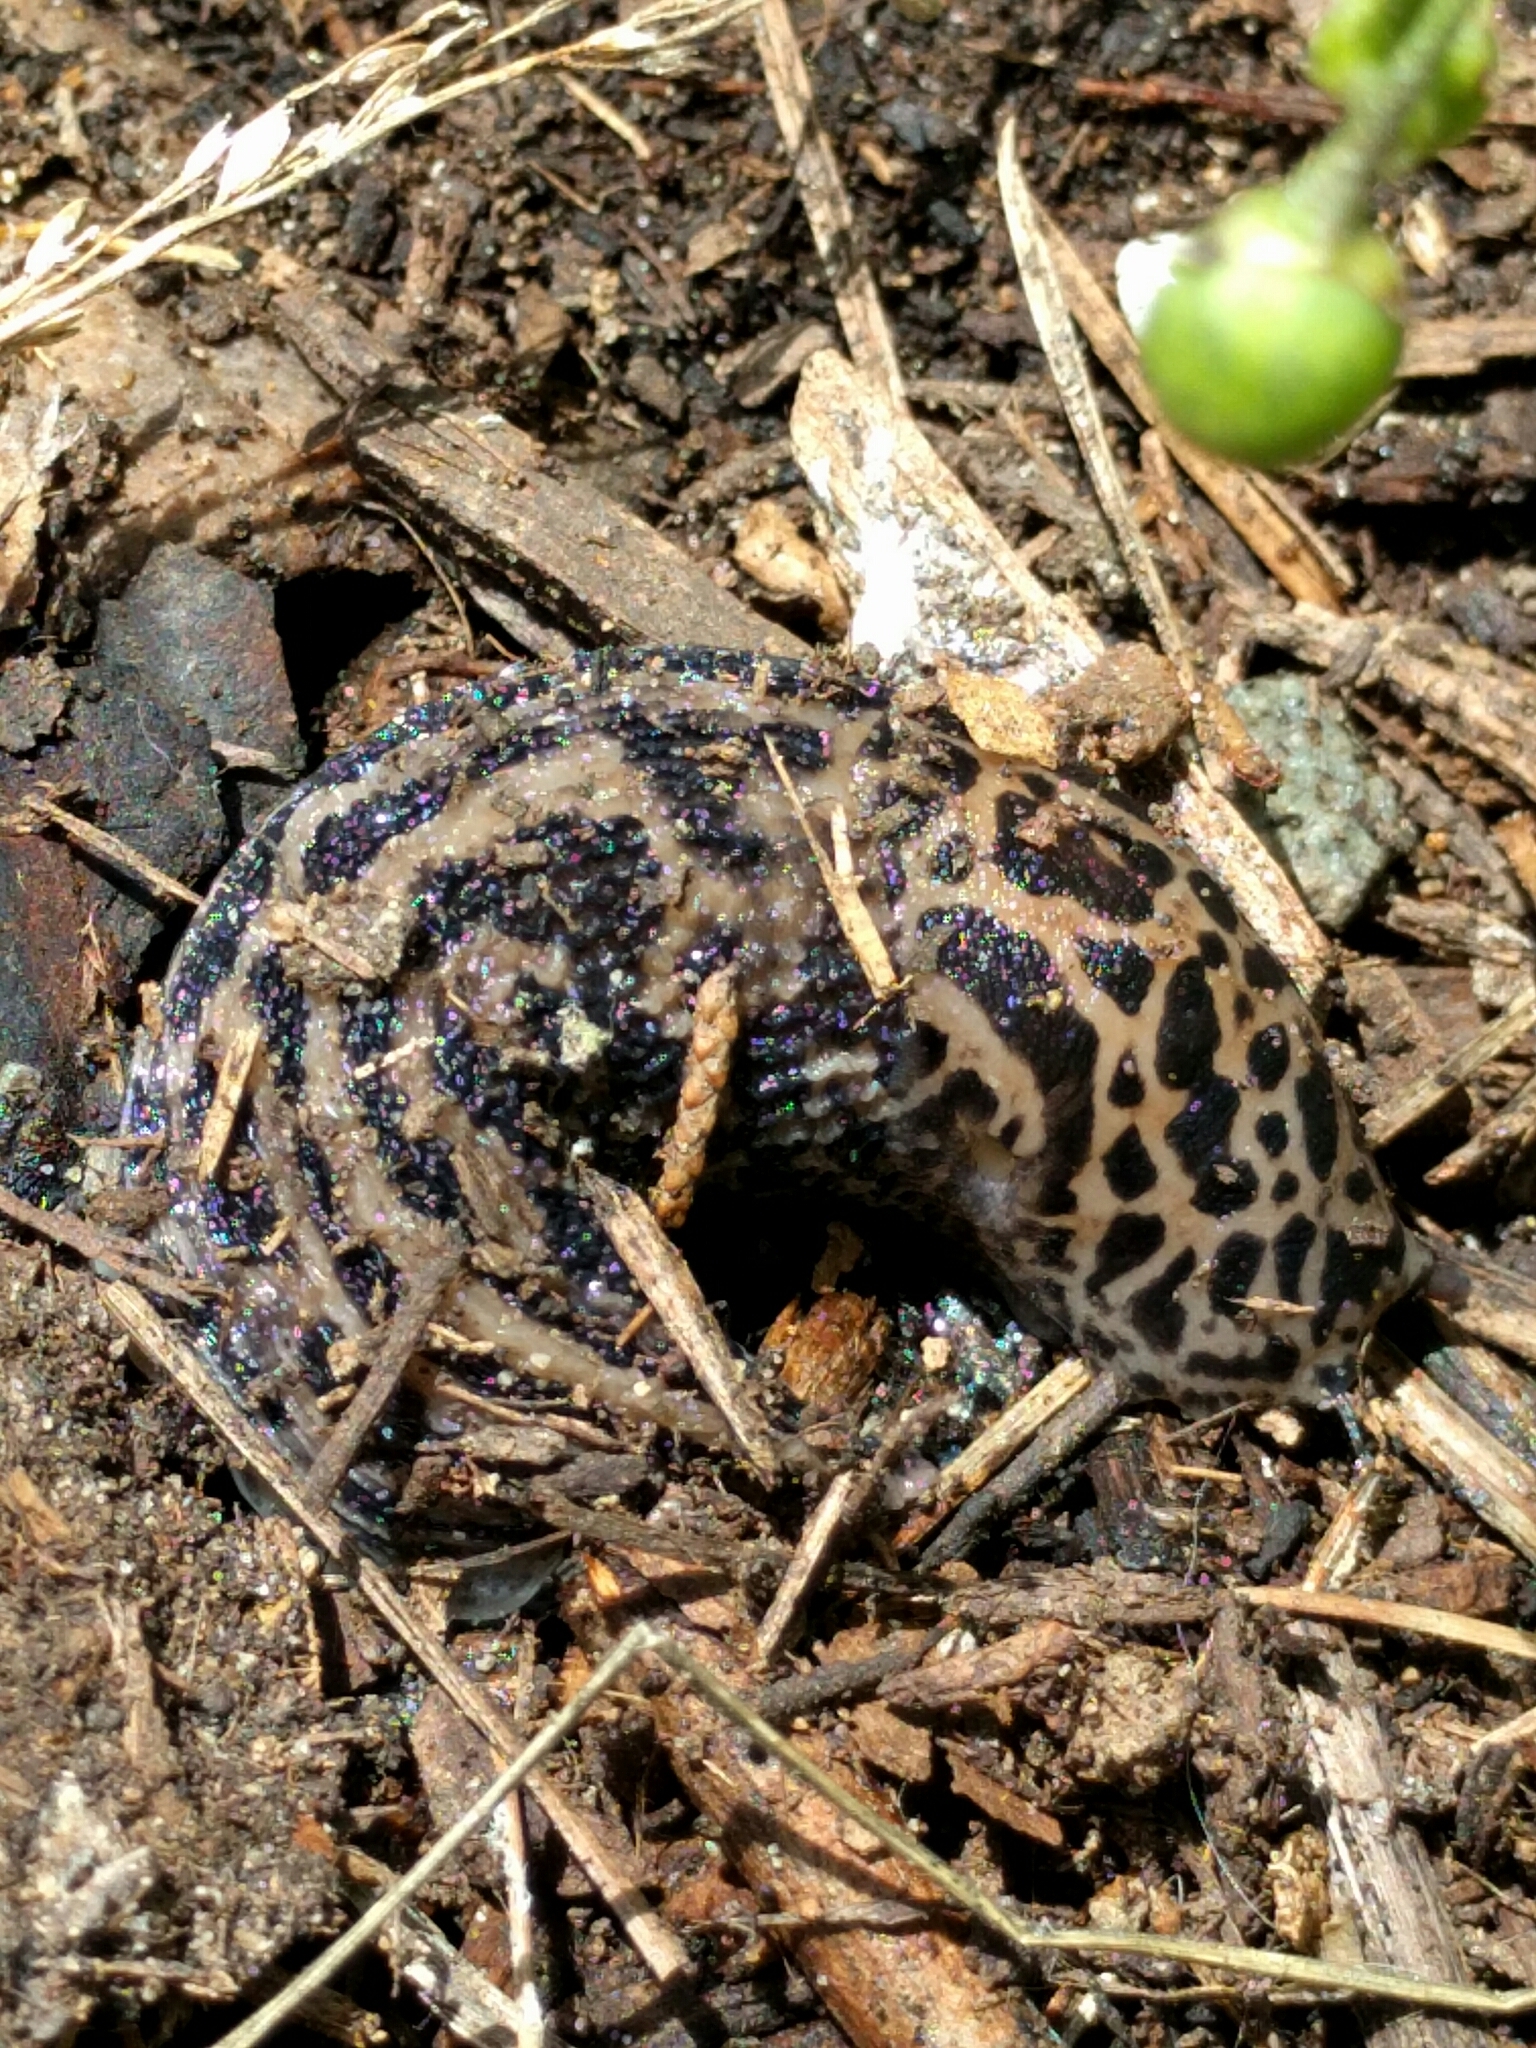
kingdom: Animalia
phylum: Mollusca
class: Gastropoda
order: Stylommatophora
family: Limacidae
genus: Limax
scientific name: Limax maximus
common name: Great grey slug
